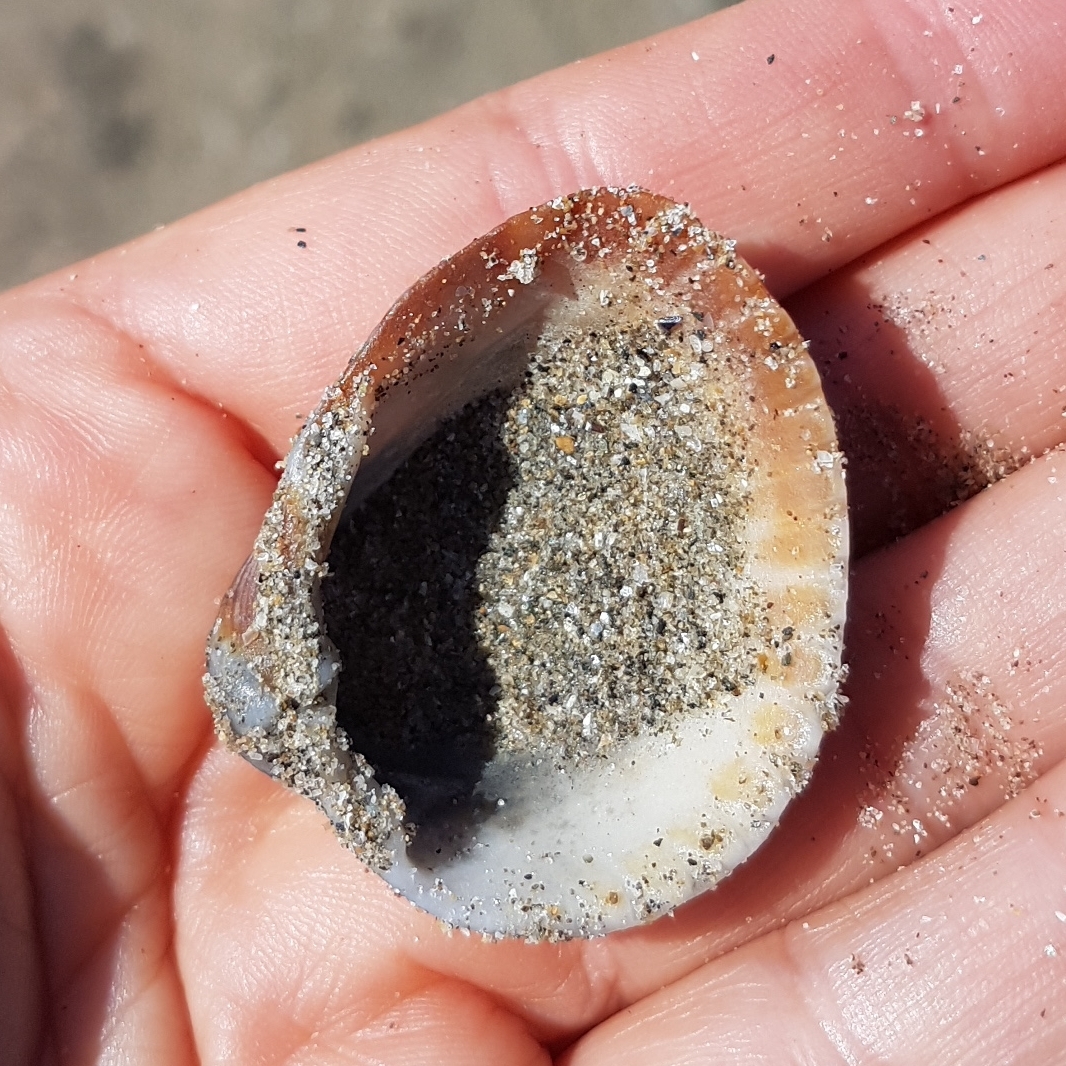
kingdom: Animalia
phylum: Mollusca
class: Bivalvia
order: Cardiida
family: Cardiidae
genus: Cerastoderma
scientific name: Cerastoderma glaucum
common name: Lagoon cockle
